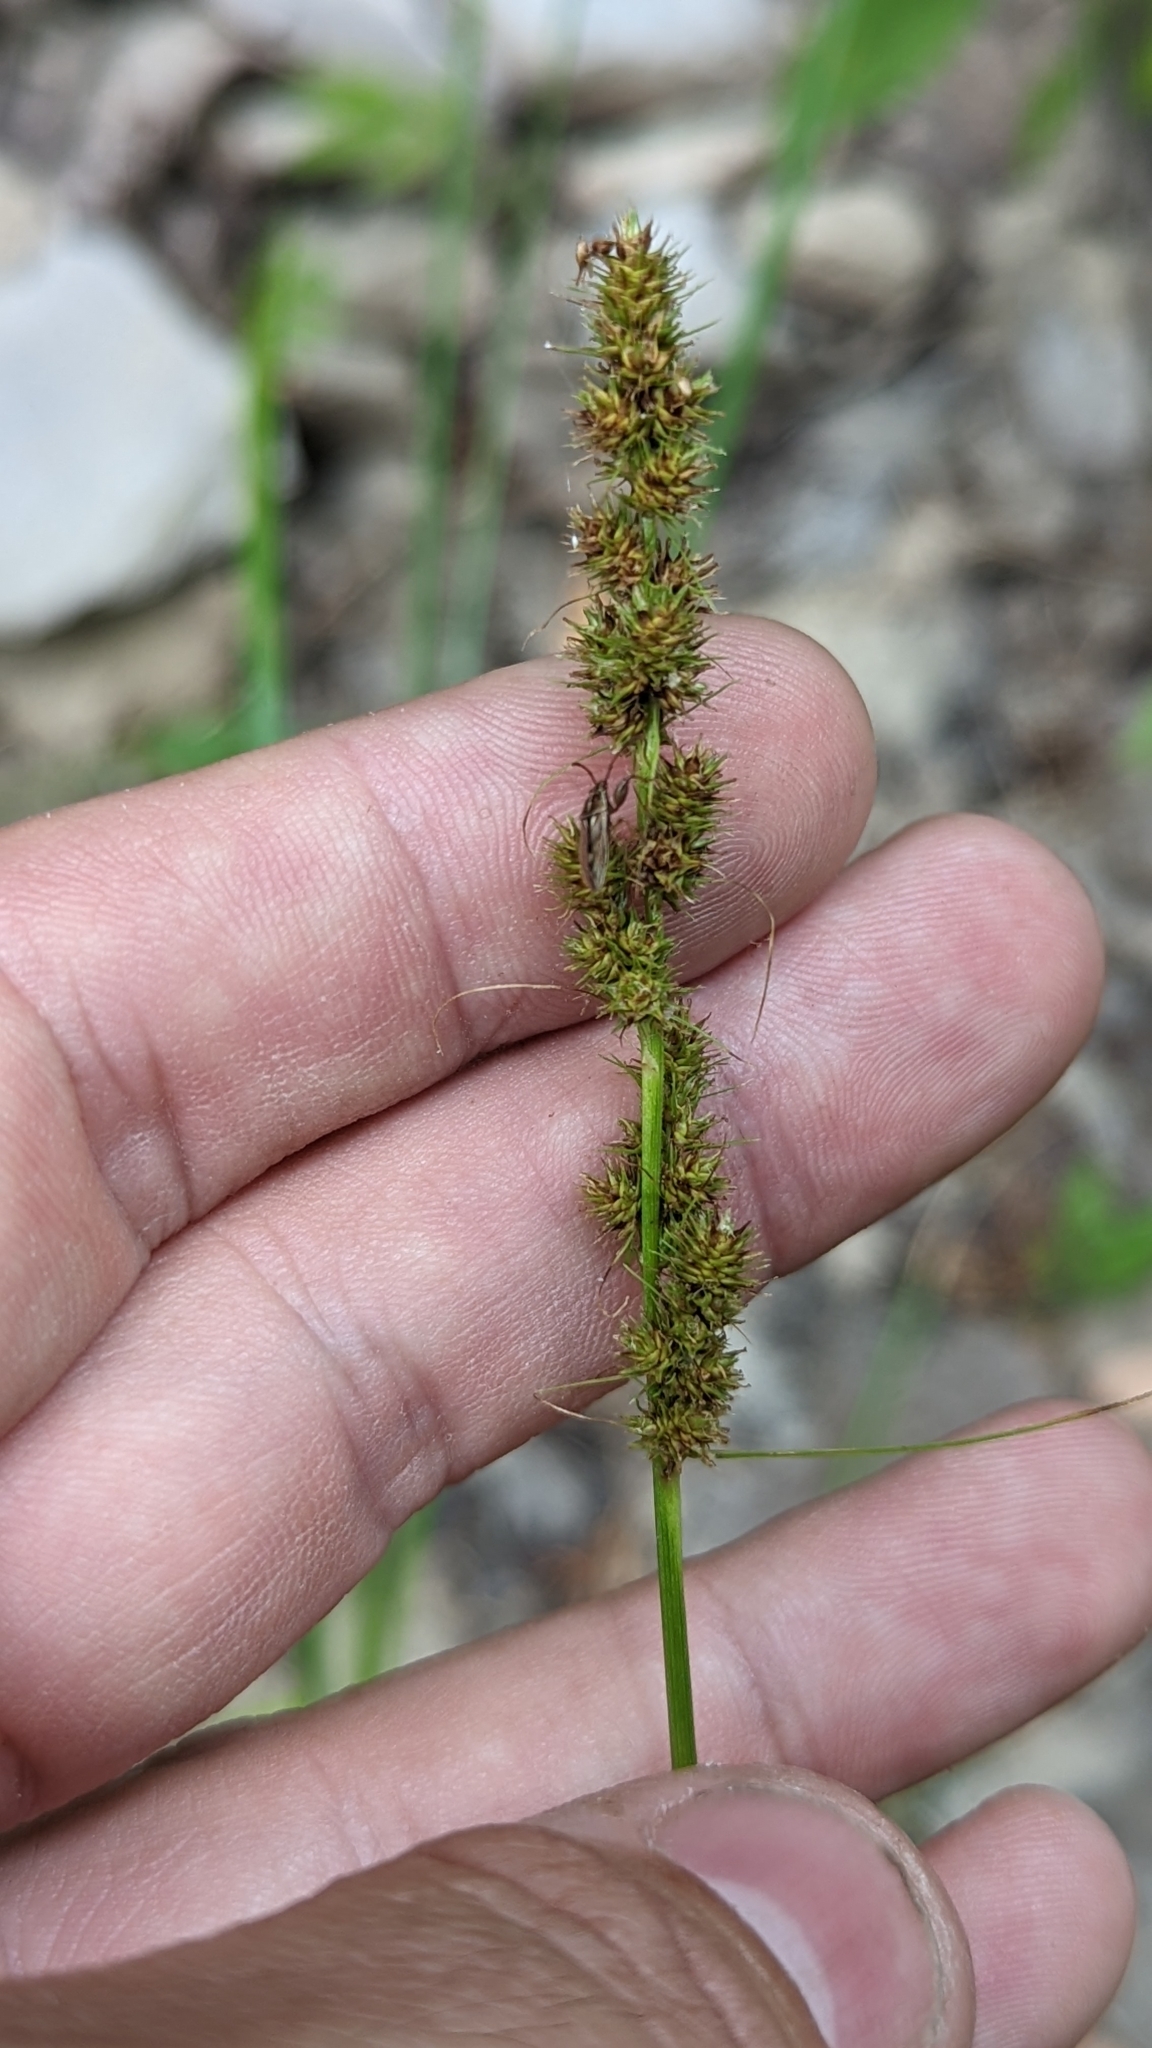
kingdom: Plantae
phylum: Tracheophyta
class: Liliopsida
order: Poales
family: Cyperaceae
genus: Carex
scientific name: Carex vulpinoidea
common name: American fox-sedge
